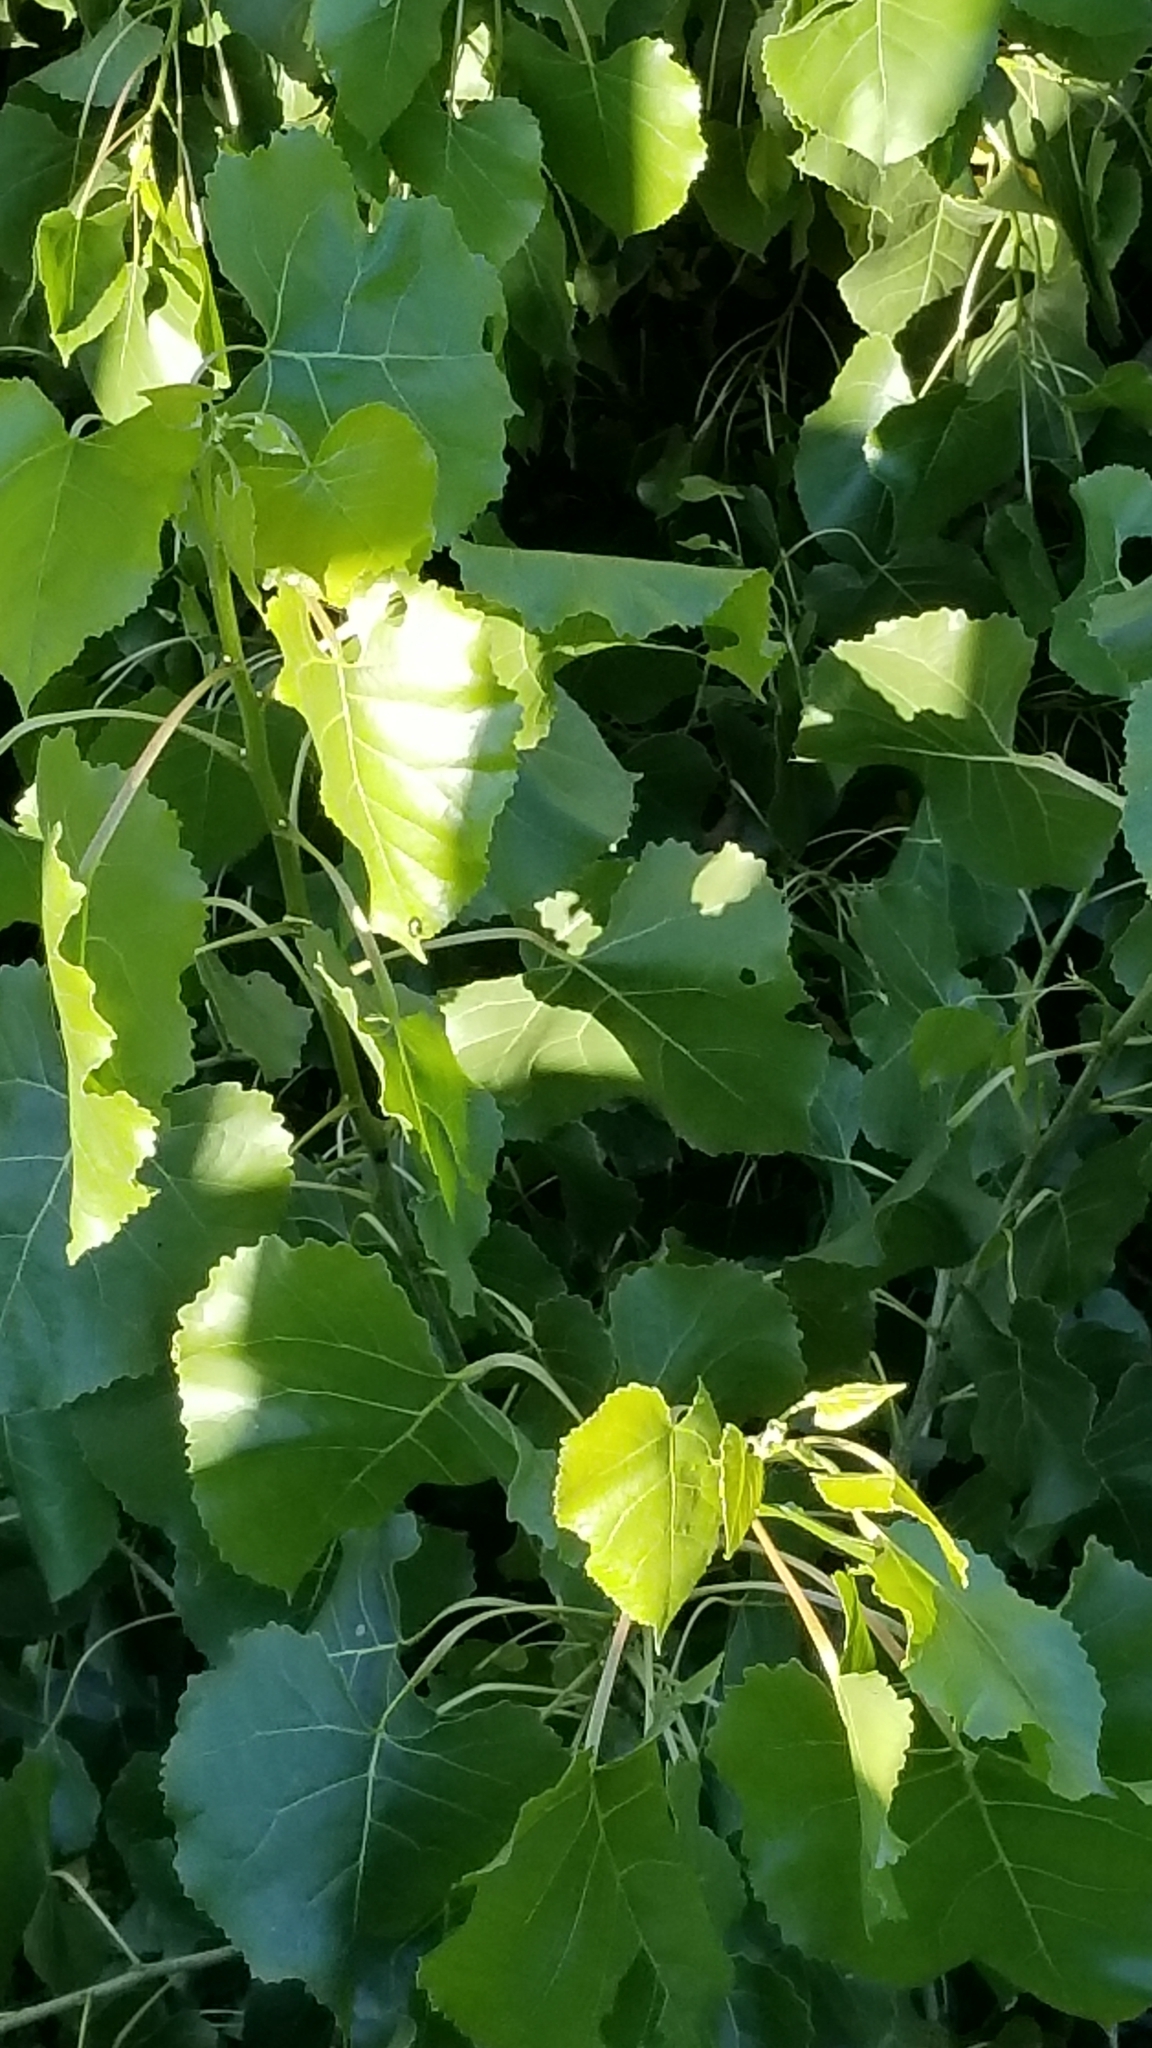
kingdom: Plantae
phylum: Tracheophyta
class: Magnoliopsida
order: Malpighiales
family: Salicaceae
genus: Populus
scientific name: Populus fremontii
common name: Fremont's cottonwood
